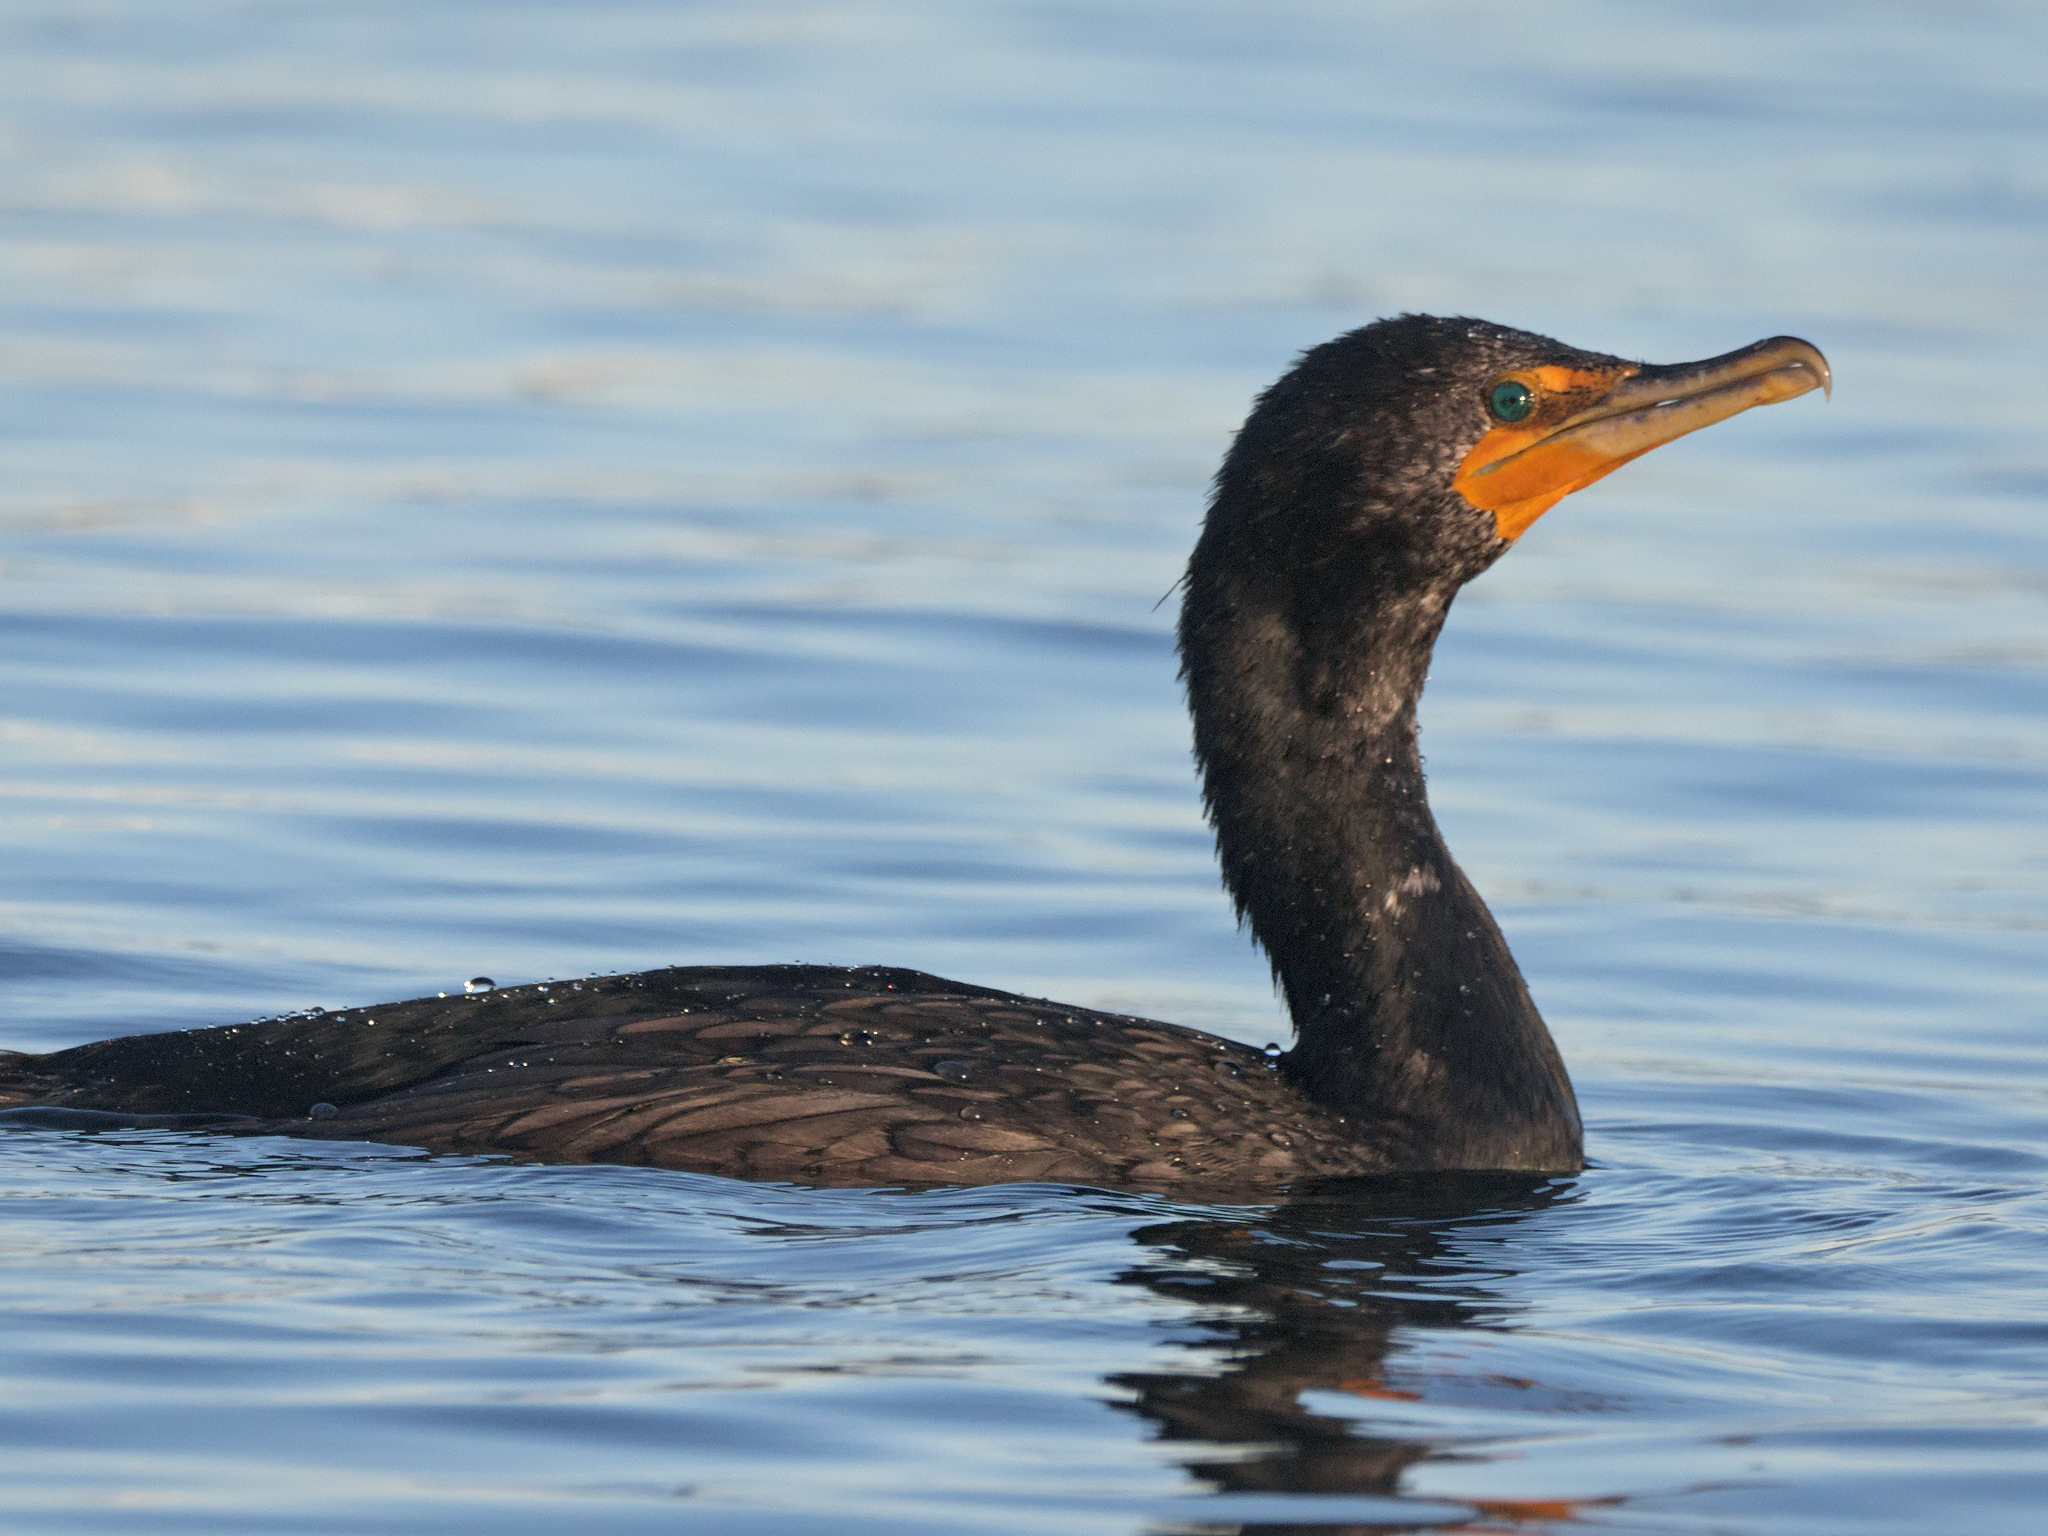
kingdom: Animalia
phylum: Chordata
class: Aves
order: Suliformes
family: Phalacrocoracidae
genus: Phalacrocorax
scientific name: Phalacrocorax auritus
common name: Double-crested cormorant
